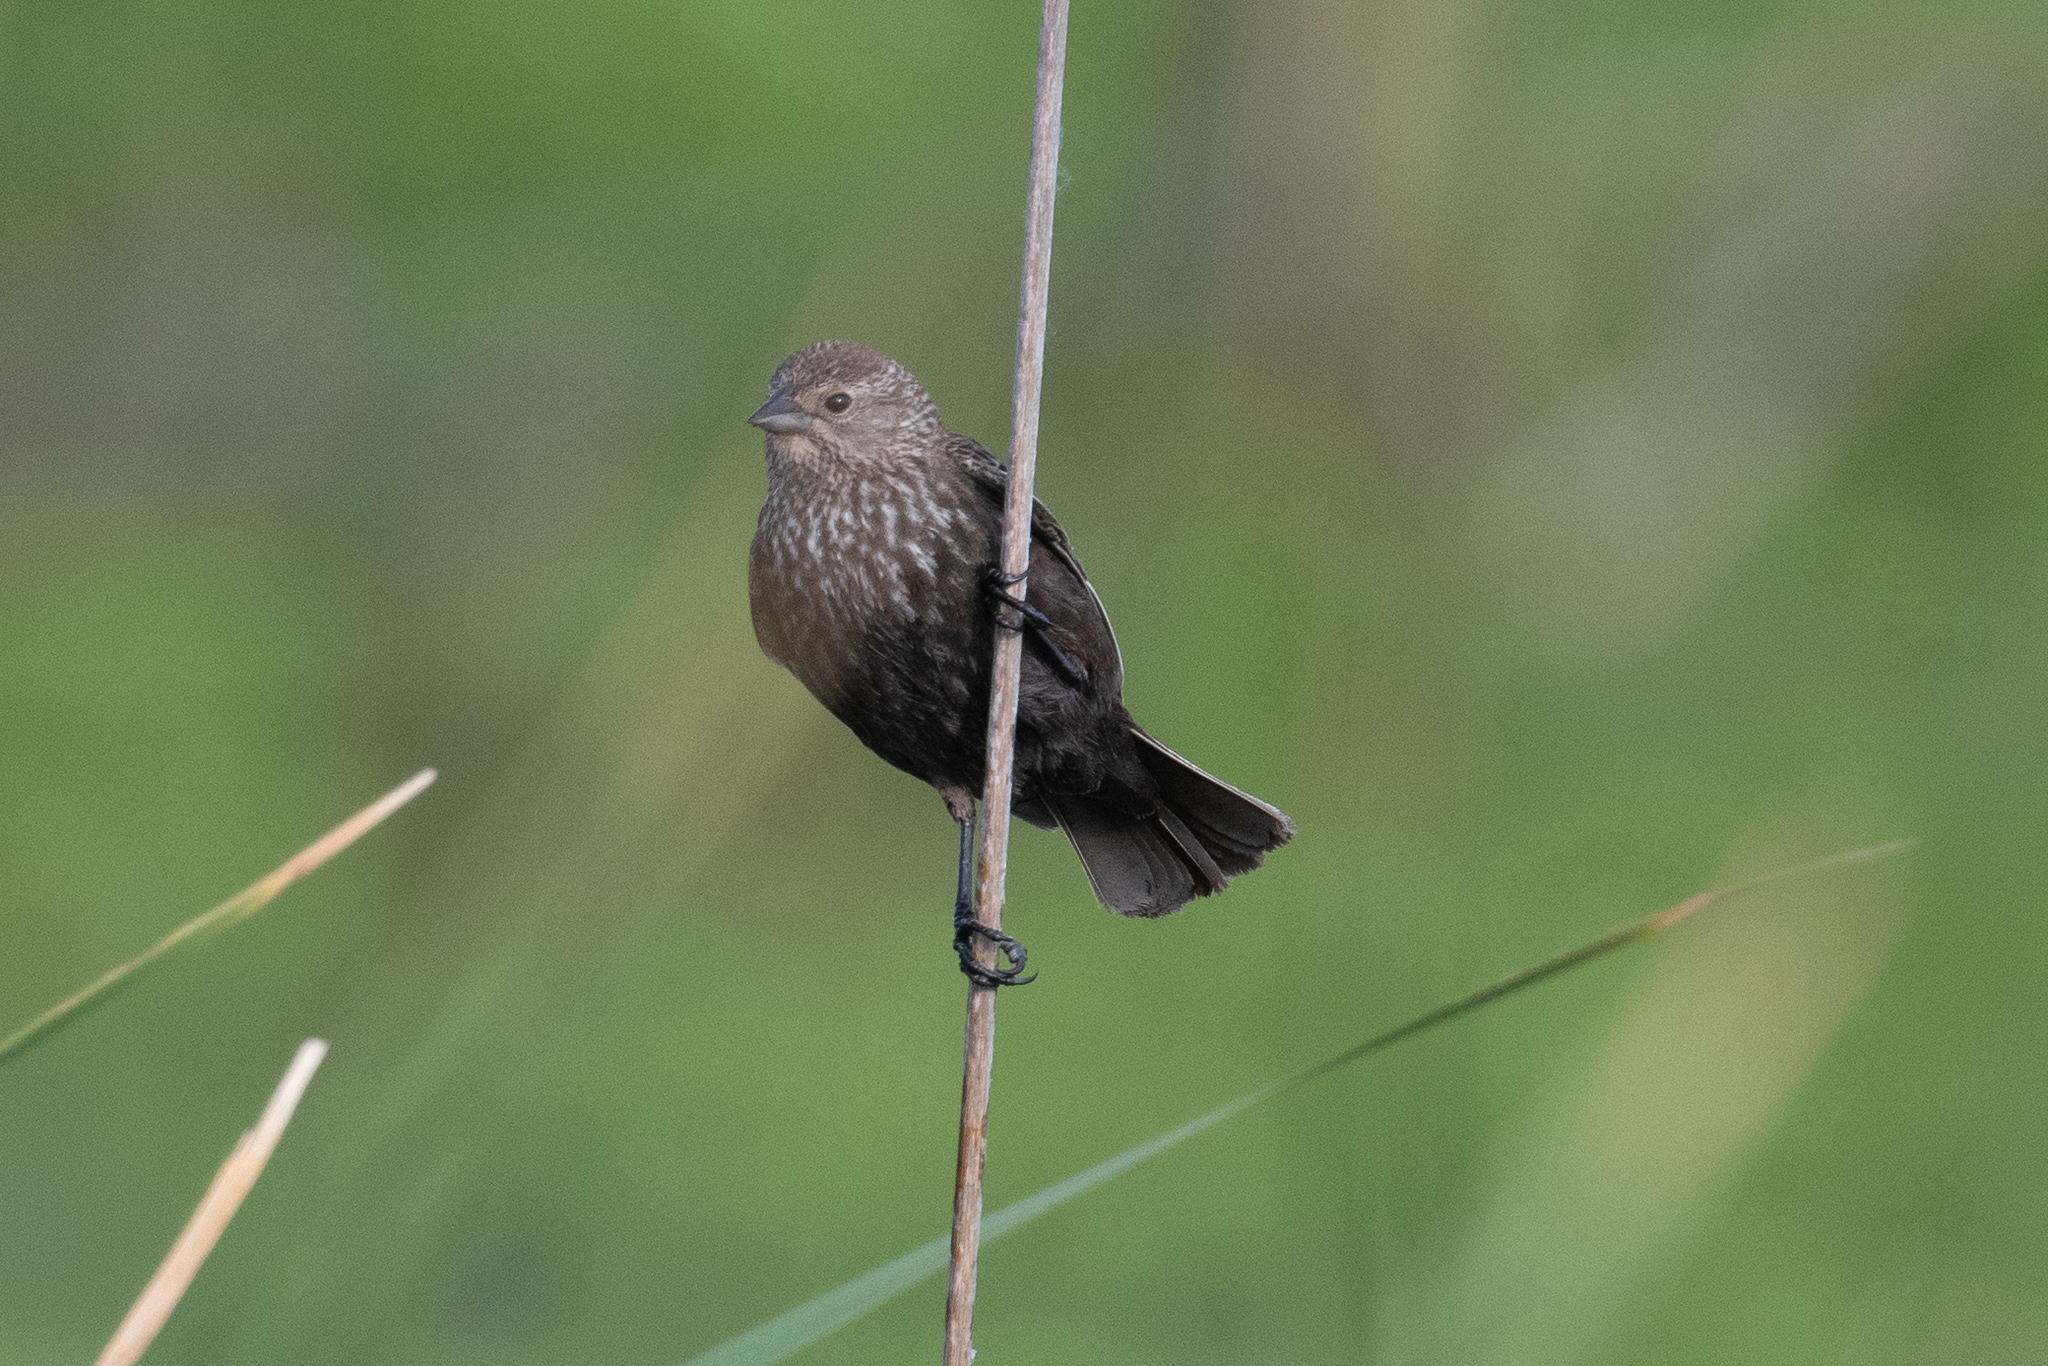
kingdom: Animalia
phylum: Chordata
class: Aves
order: Passeriformes
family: Icteridae
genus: Agelaius
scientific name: Agelaius phoeniceus
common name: Red-winged blackbird
